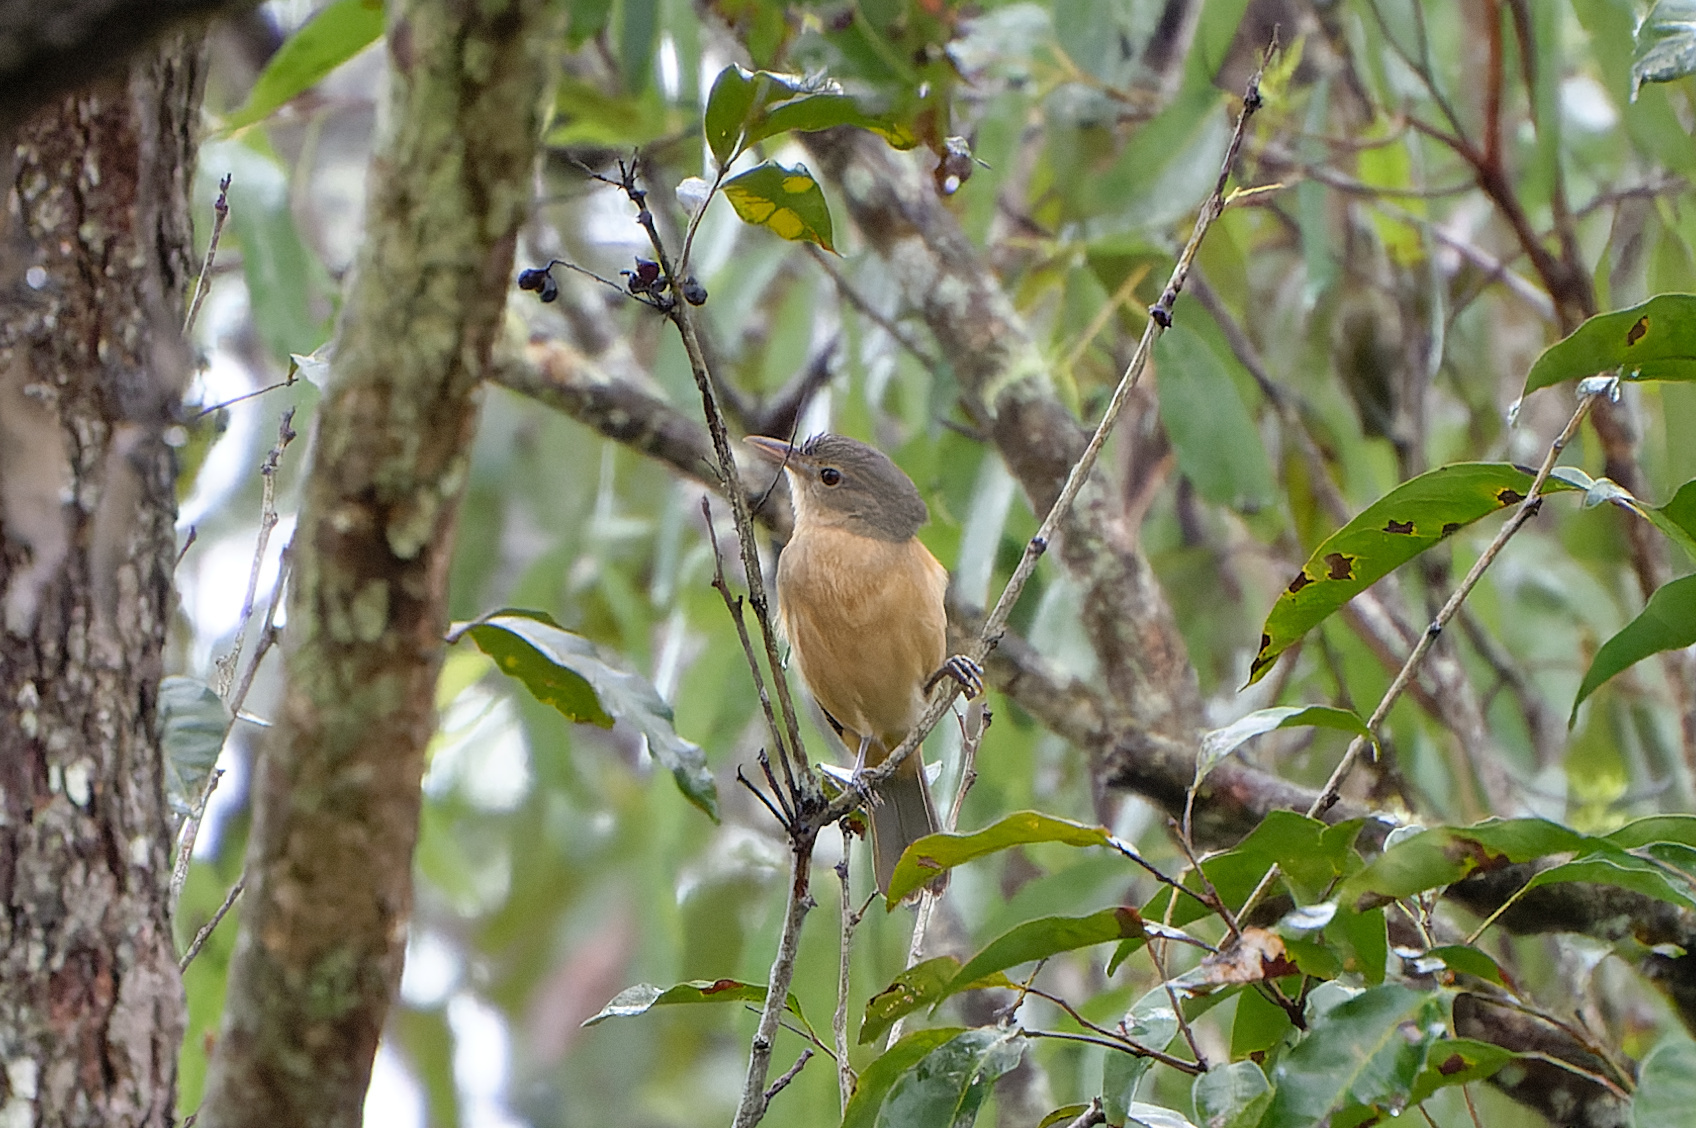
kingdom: Animalia
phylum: Chordata
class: Aves
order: Passeriformes
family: Pachycephalidae
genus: Colluricincla
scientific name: Colluricincla rufogaster
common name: Rufous shrikethrush
